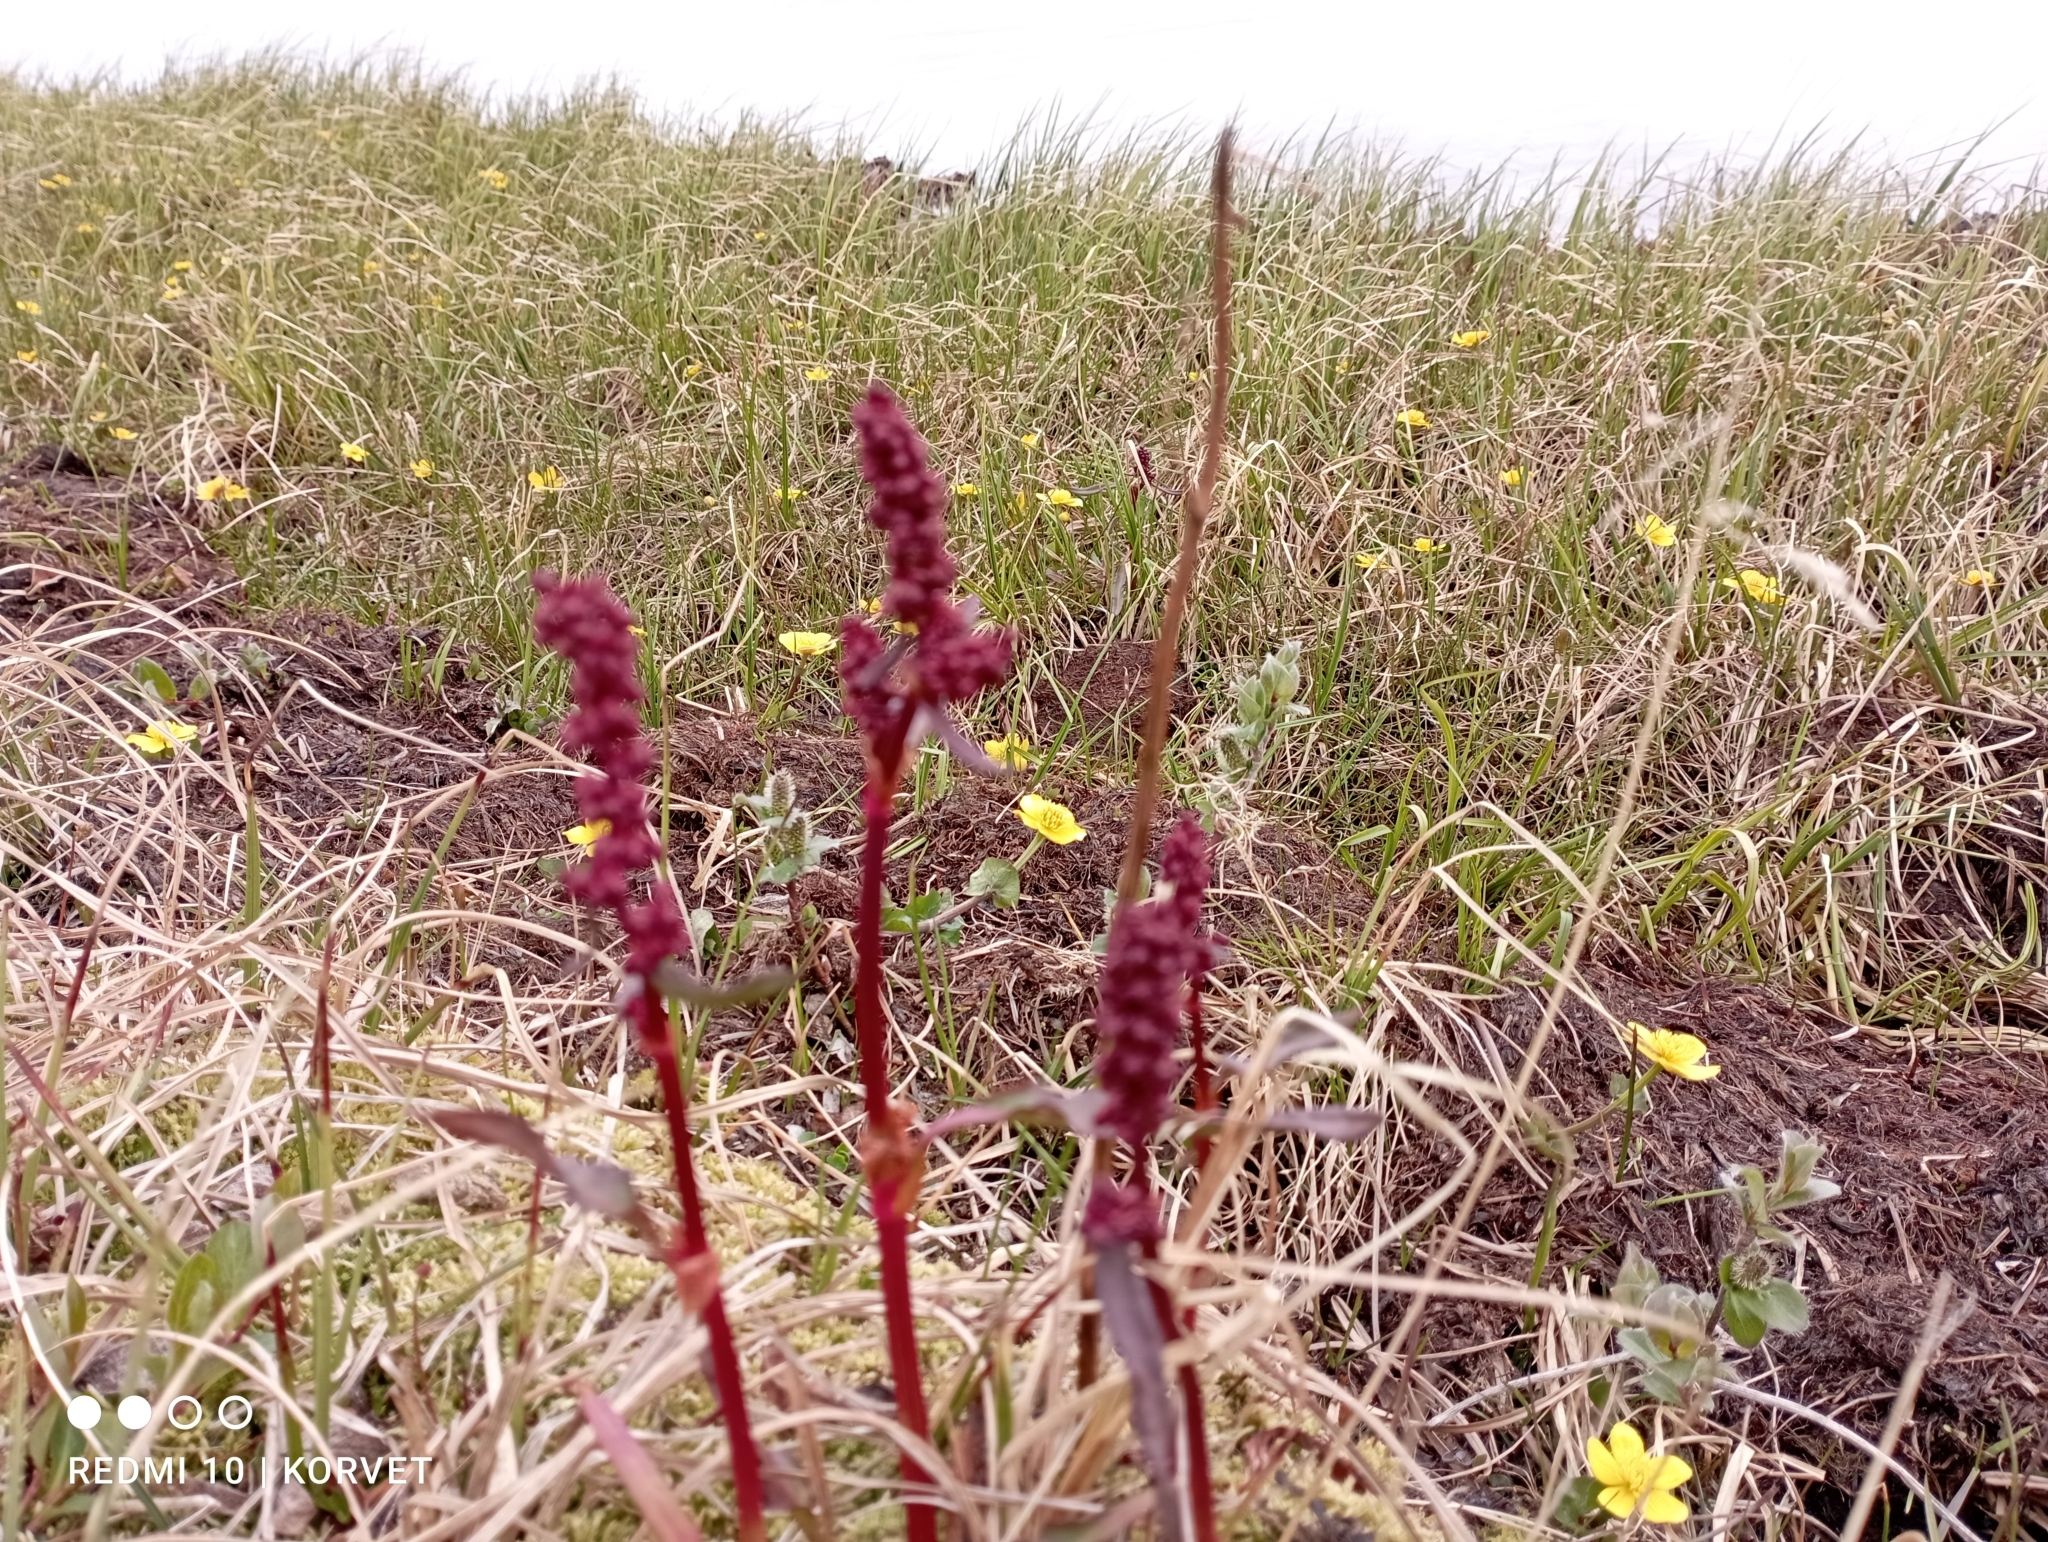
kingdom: Plantae
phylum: Tracheophyta
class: Magnoliopsida
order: Caryophyllales
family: Polygonaceae
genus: Rumex
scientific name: Rumex arcticus
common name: Arctic dock
